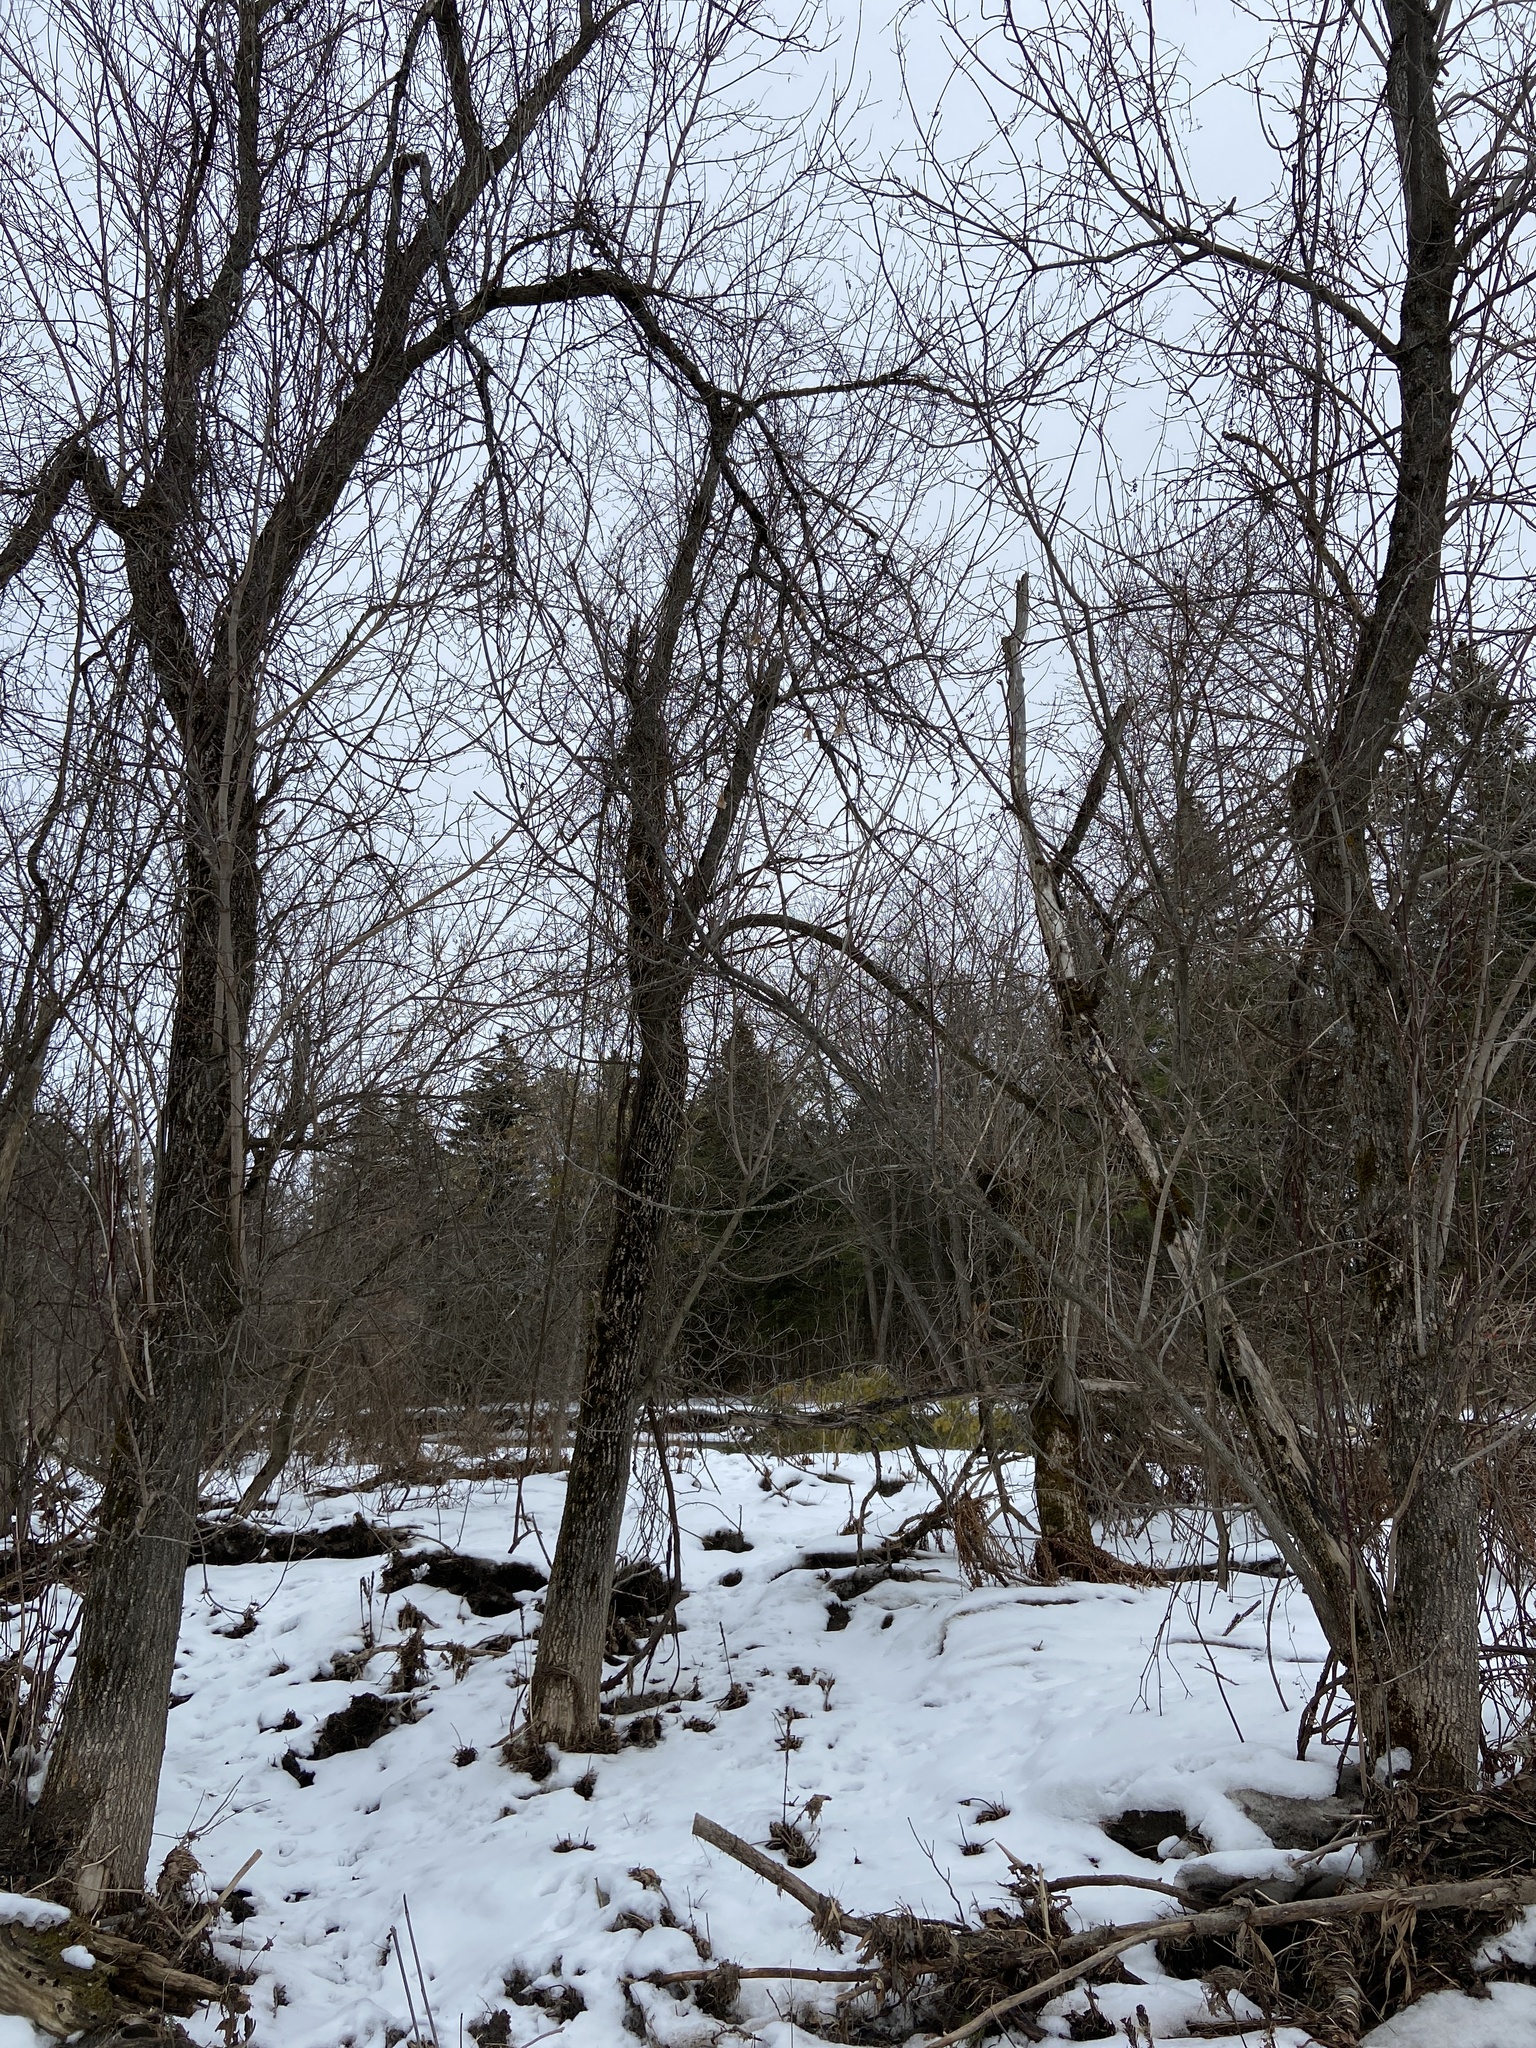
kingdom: Plantae
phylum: Tracheophyta
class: Magnoliopsida
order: Sapindales
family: Sapindaceae
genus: Acer
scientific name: Acer negundo
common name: Ashleaf maple
